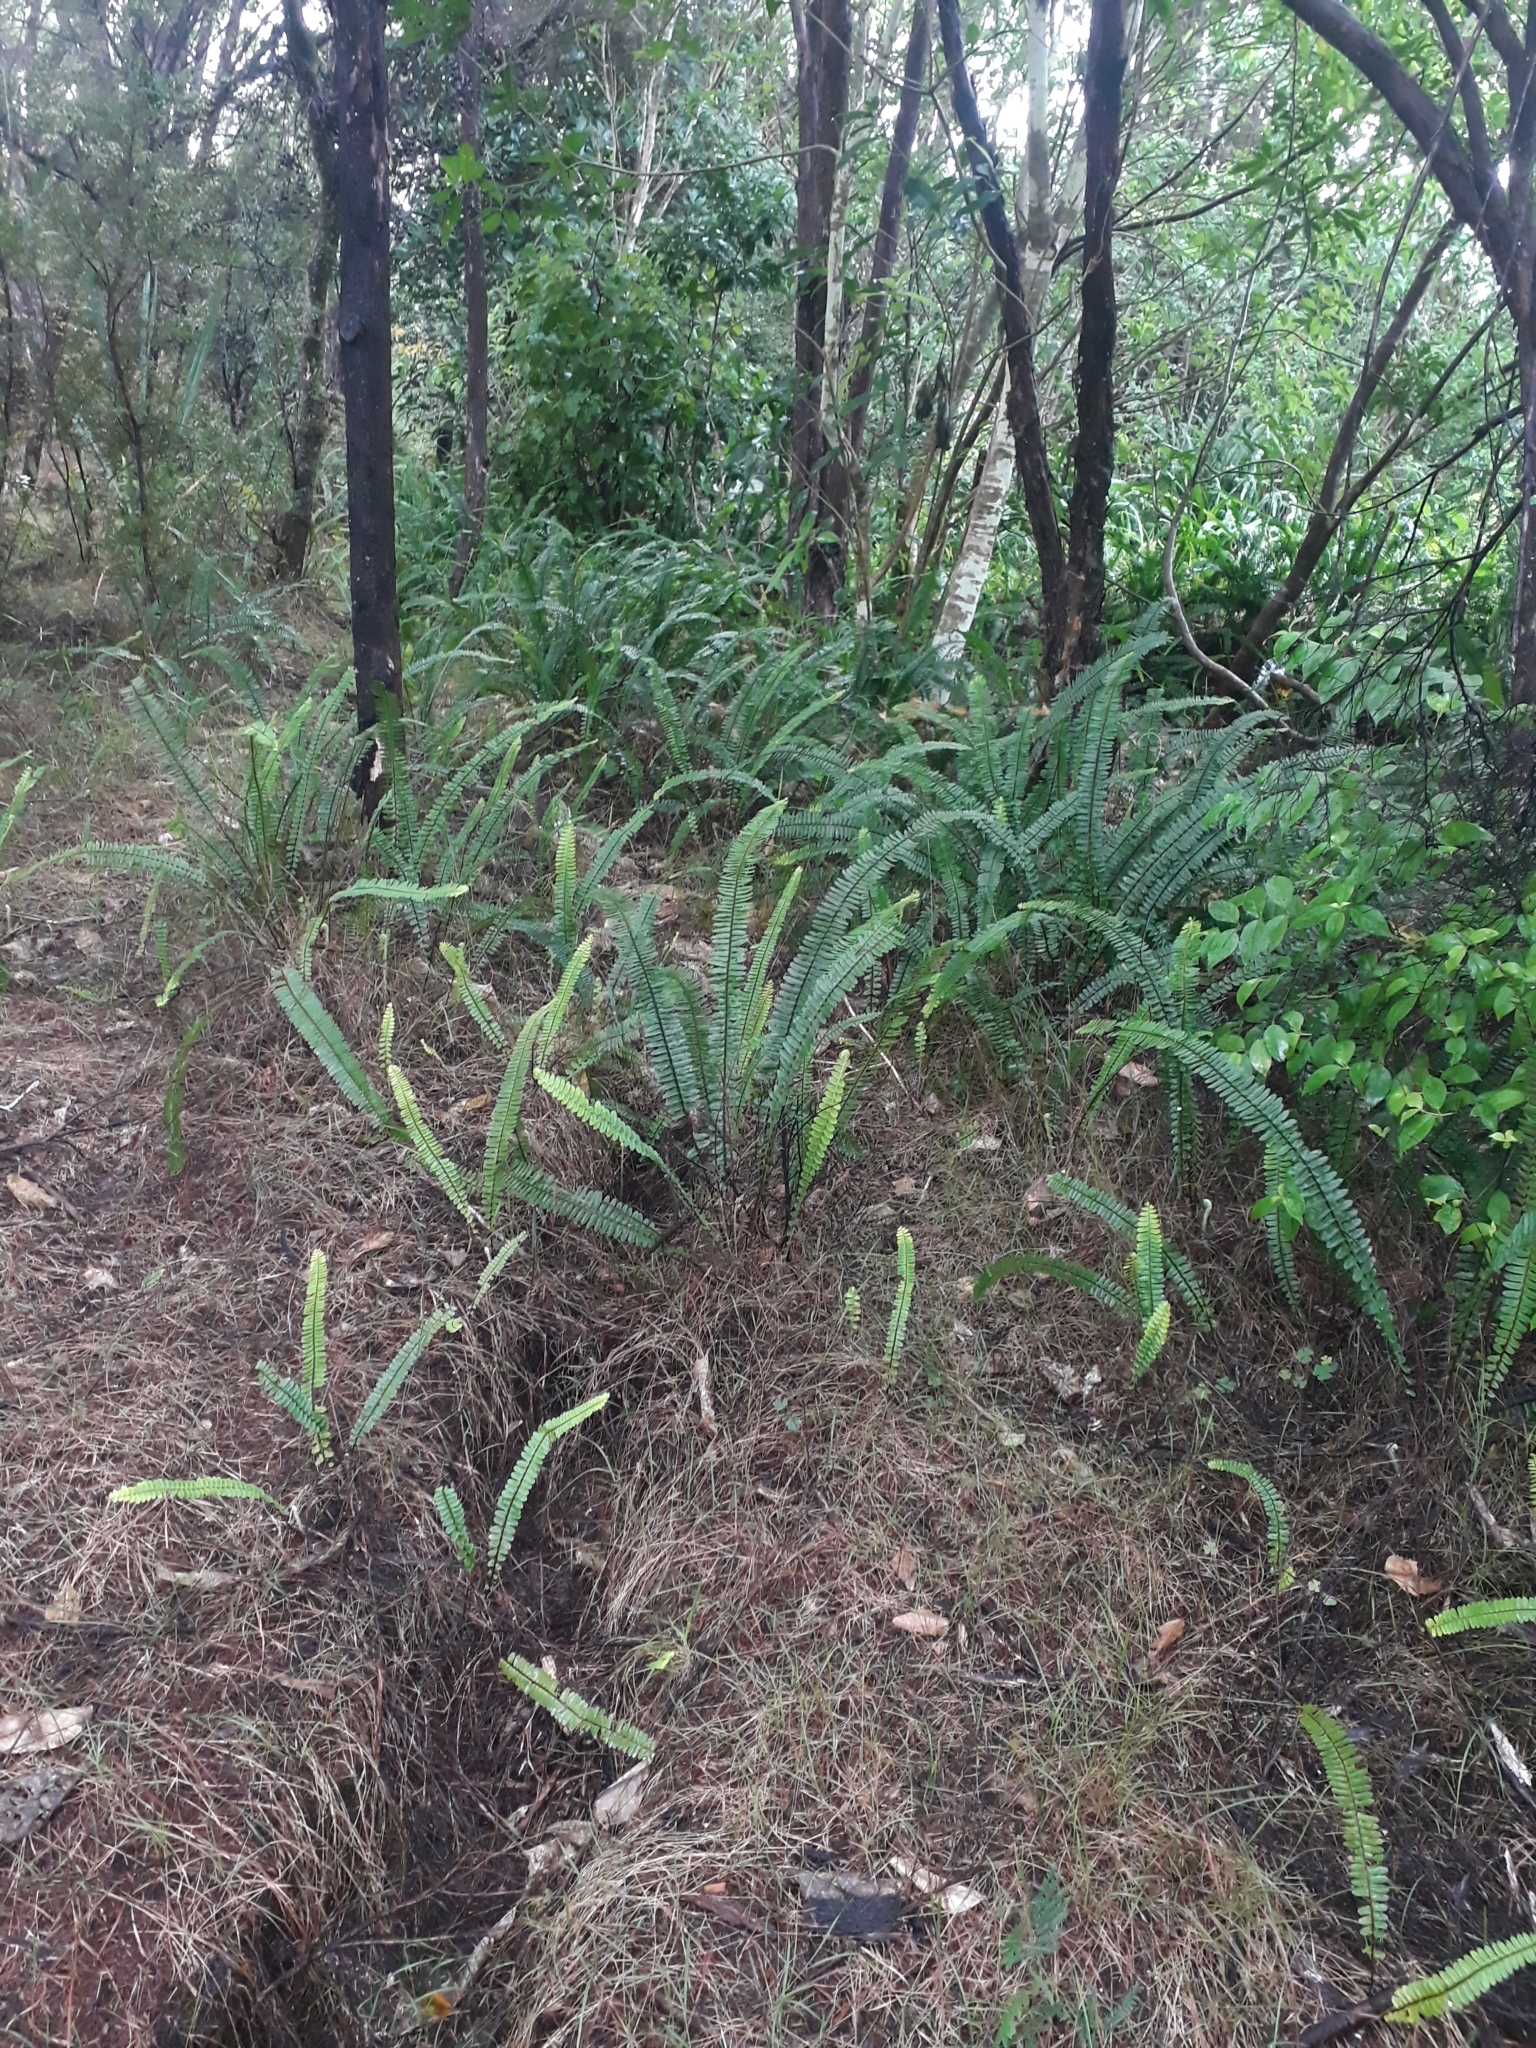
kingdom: Plantae
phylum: Tracheophyta
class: Polypodiopsida
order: Polypodiales
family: Nephrolepidaceae
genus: Nephrolepis
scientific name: Nephrolepis cordifolia
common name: Narrow swordfern
